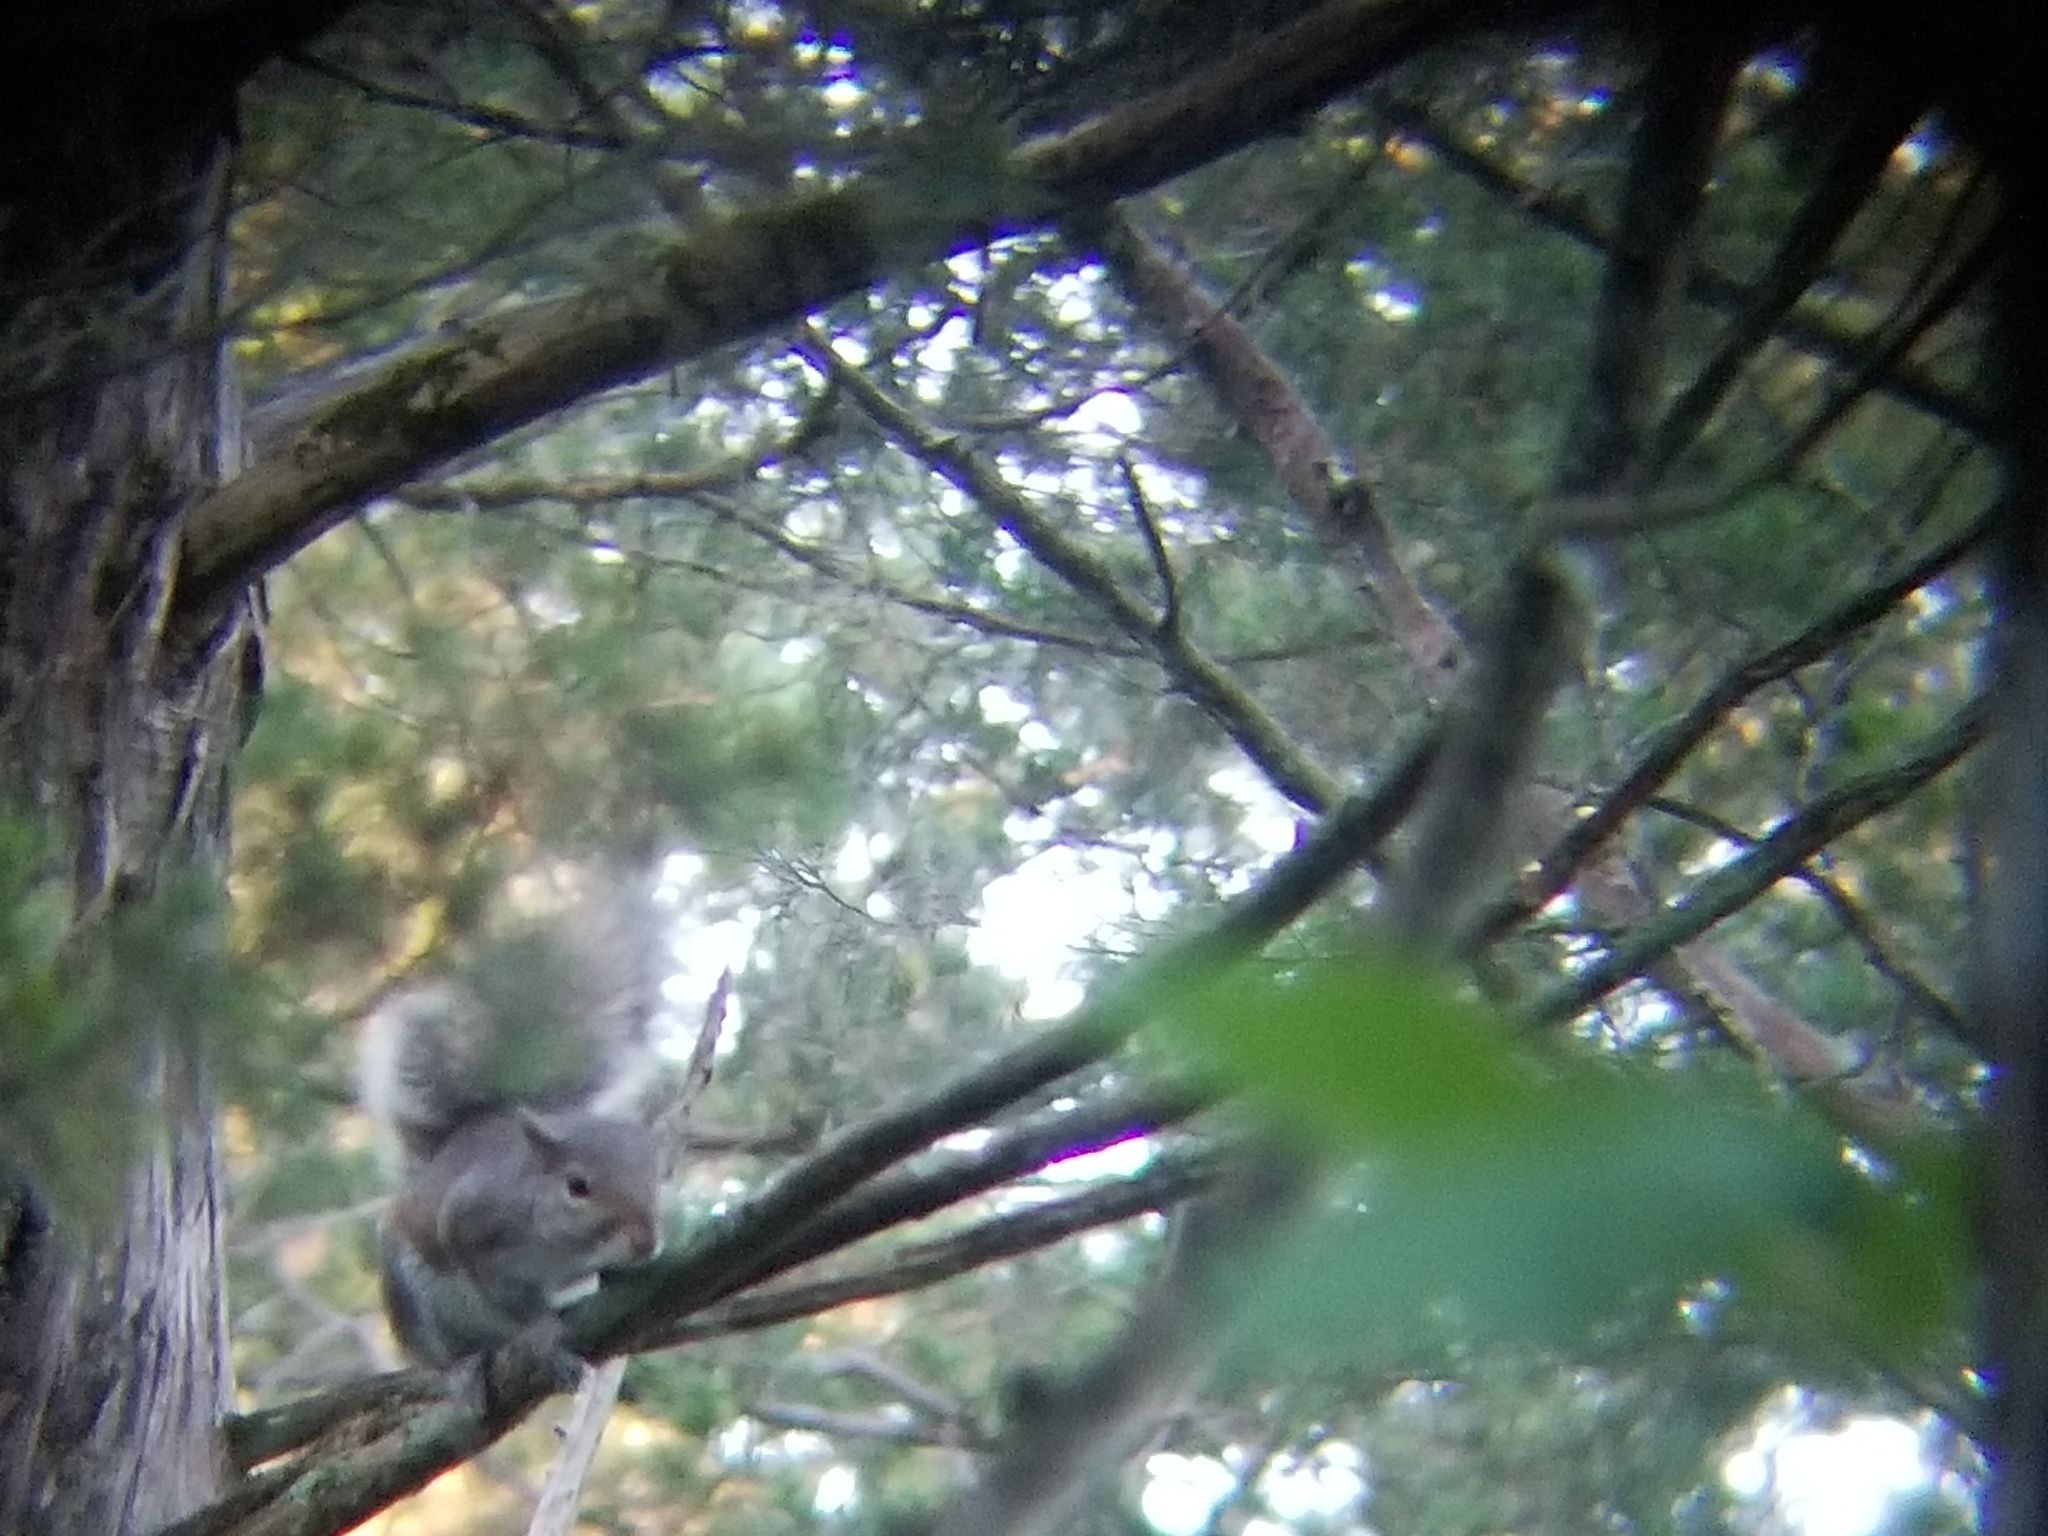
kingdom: Animalia
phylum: Chordata
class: Mammalia
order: Rodentia
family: Sciuridae
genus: Sciurus
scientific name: Sciurus carolinensis
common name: Eastern gray squirrel
